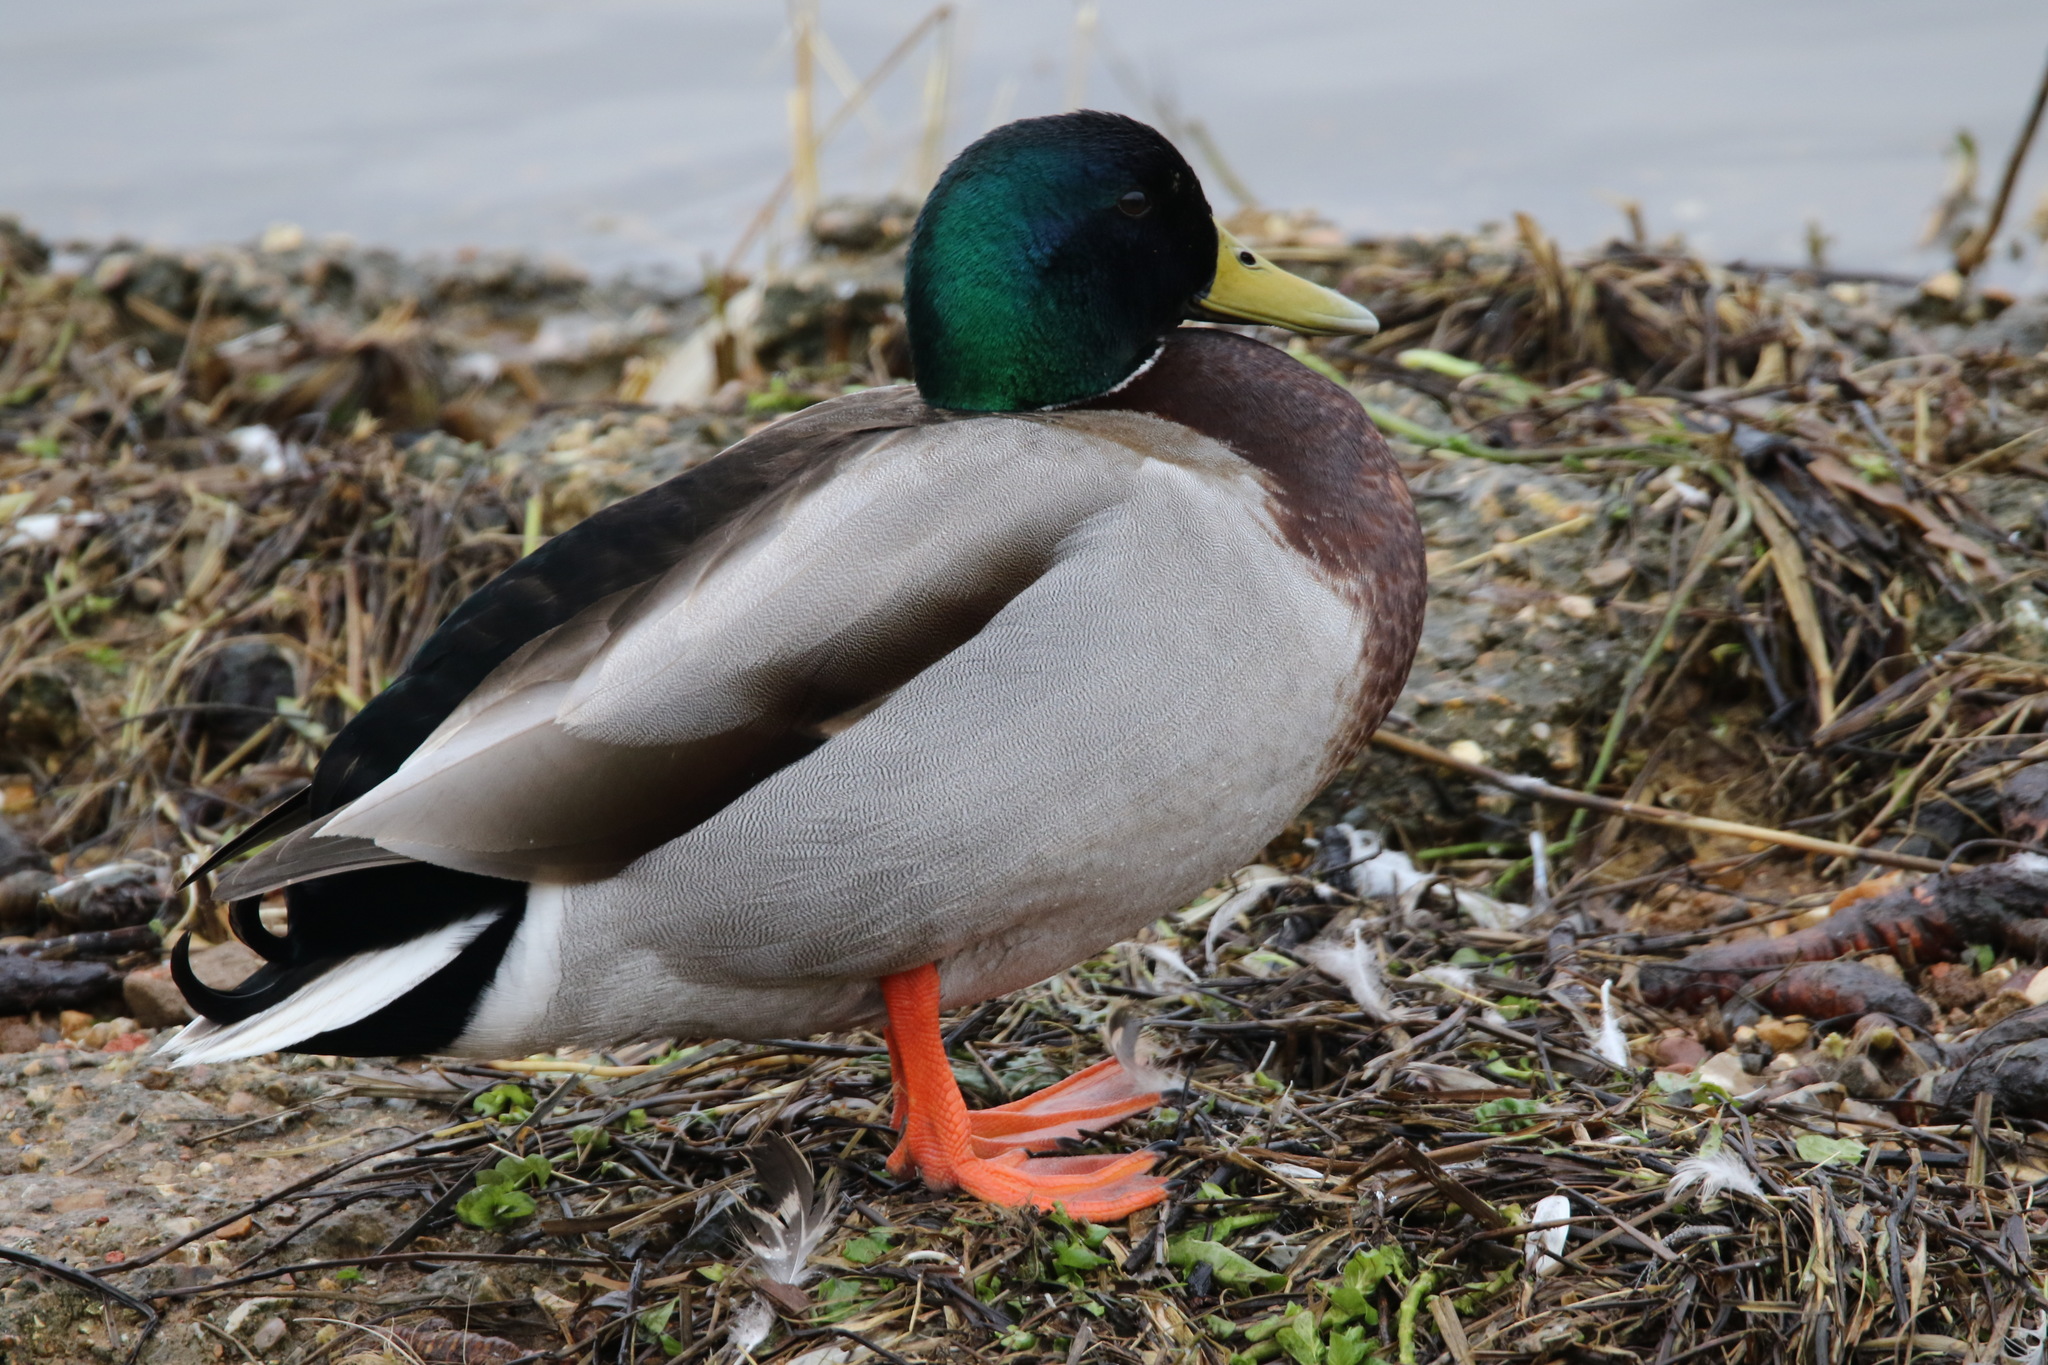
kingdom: Animalia
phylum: Chordata
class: Aves
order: Anseriformes
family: Anatidae
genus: Anas
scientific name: Anas platyrhynchos
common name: Mallard
